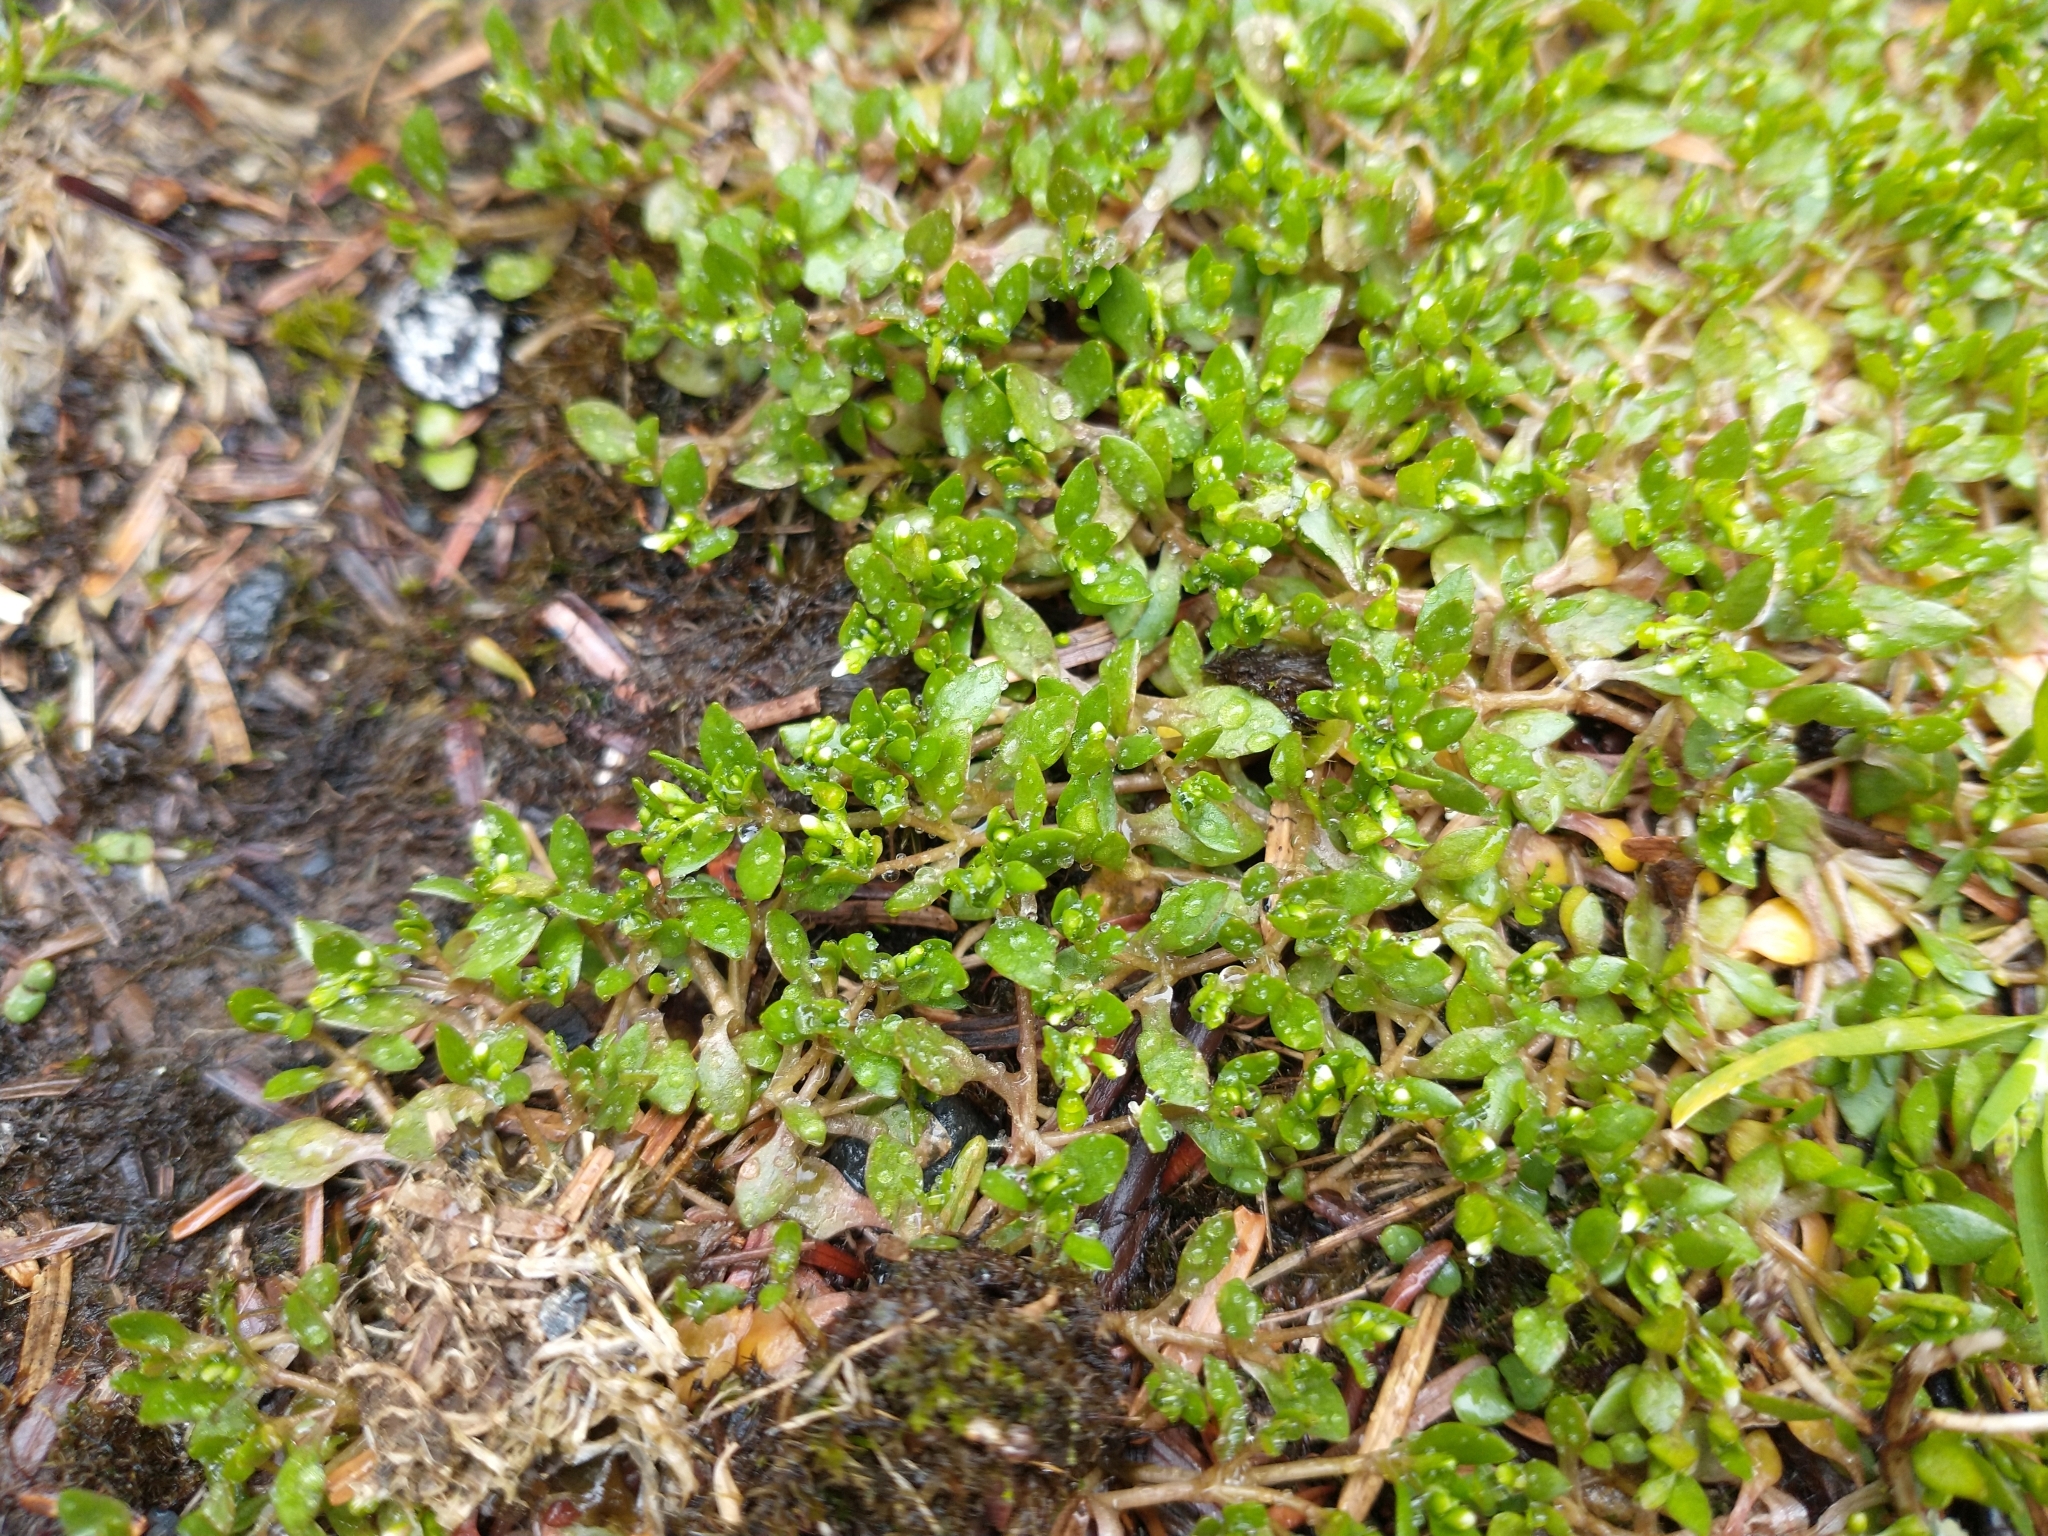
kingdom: Plantae
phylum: Tracheophyta
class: Magnoliopsida
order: Caryophyllales
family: Montiaceae
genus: Montia
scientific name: Montia fontana
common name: Blinks
